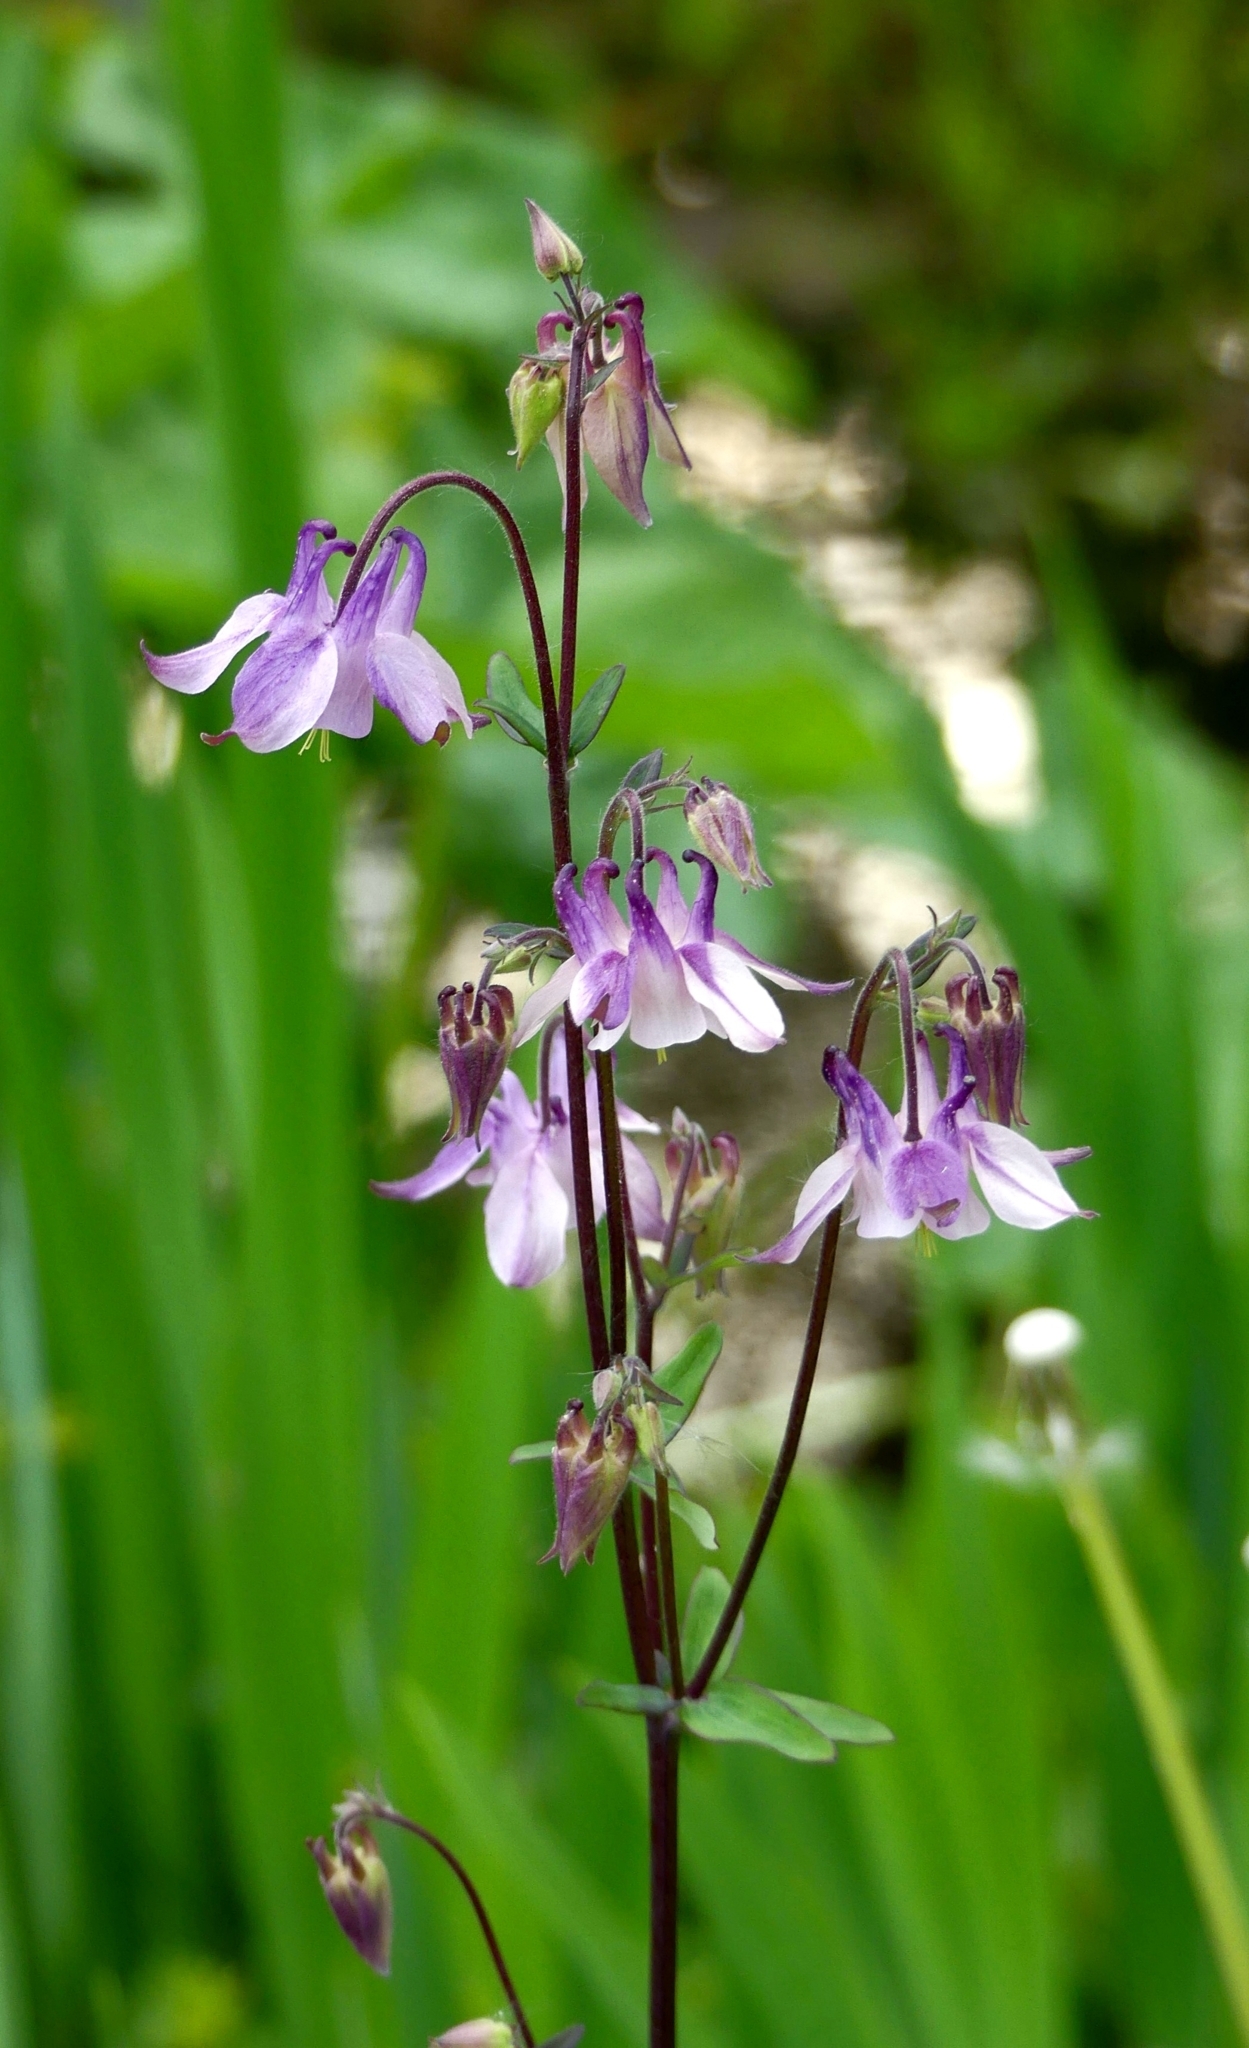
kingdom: Plantae
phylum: Tracheophyta
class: Magnoliopsida
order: Ranunculales
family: Ranunculaceae
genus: Aquilegia
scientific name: Aquilegia vulgaris
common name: Columbine
